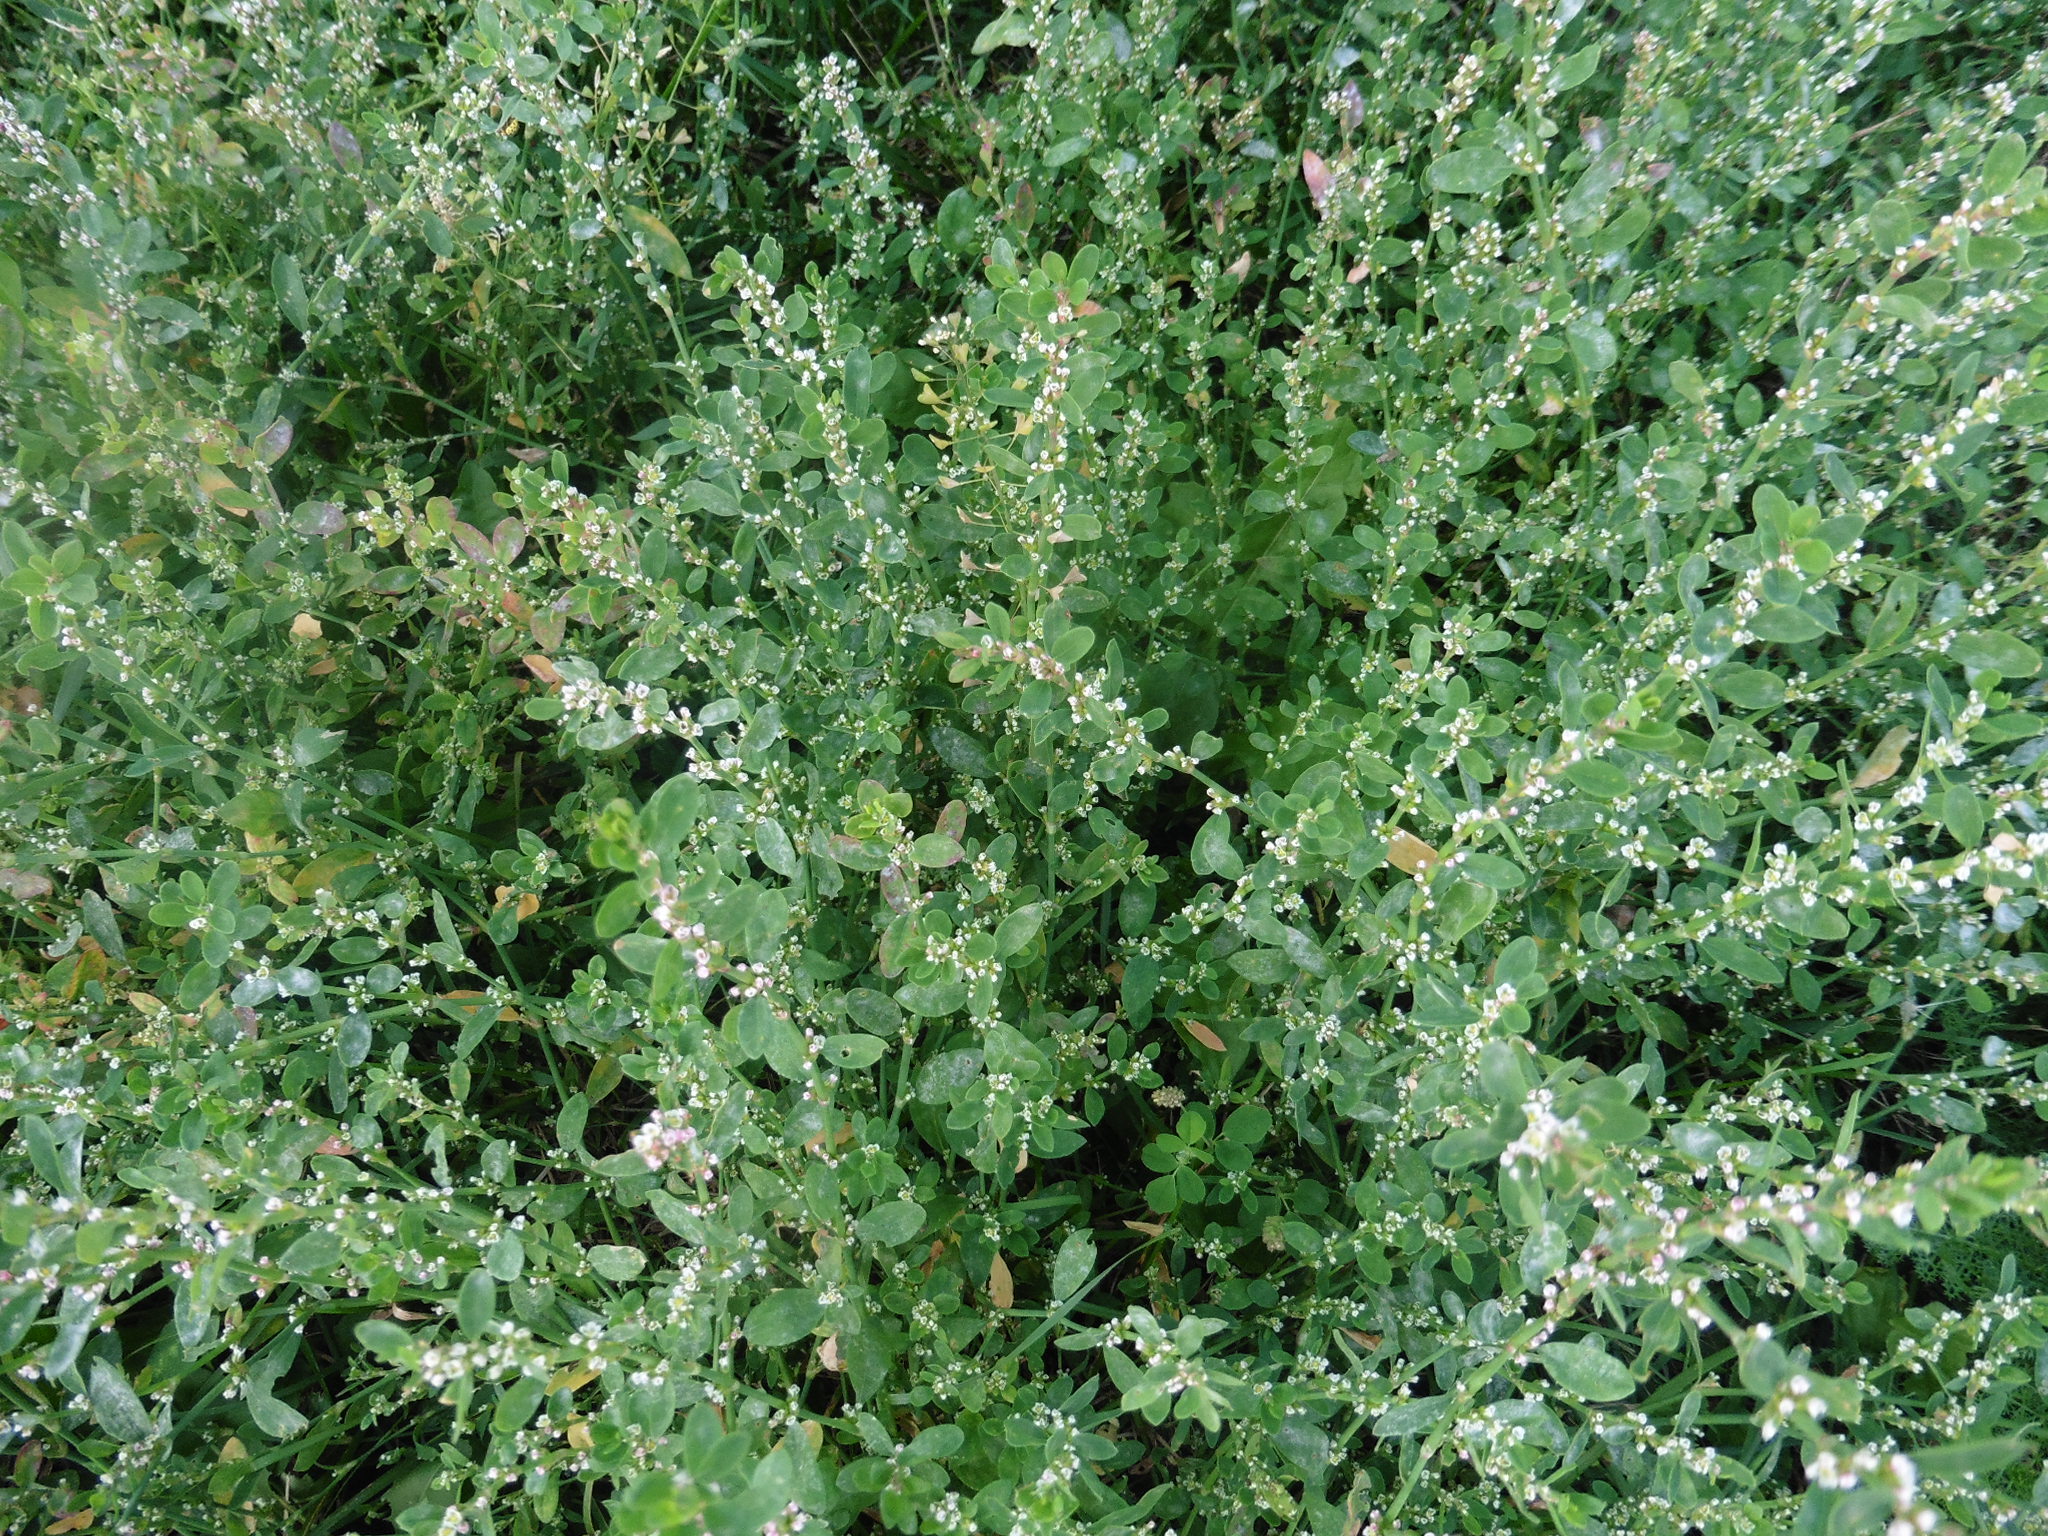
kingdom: Plantae
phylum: Tracheophyta
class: Magnoliopsida
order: Caryophyllales
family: Polygonaceae
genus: Polygonum
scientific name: Polygonum aviculare
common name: Prostrate knotweed
